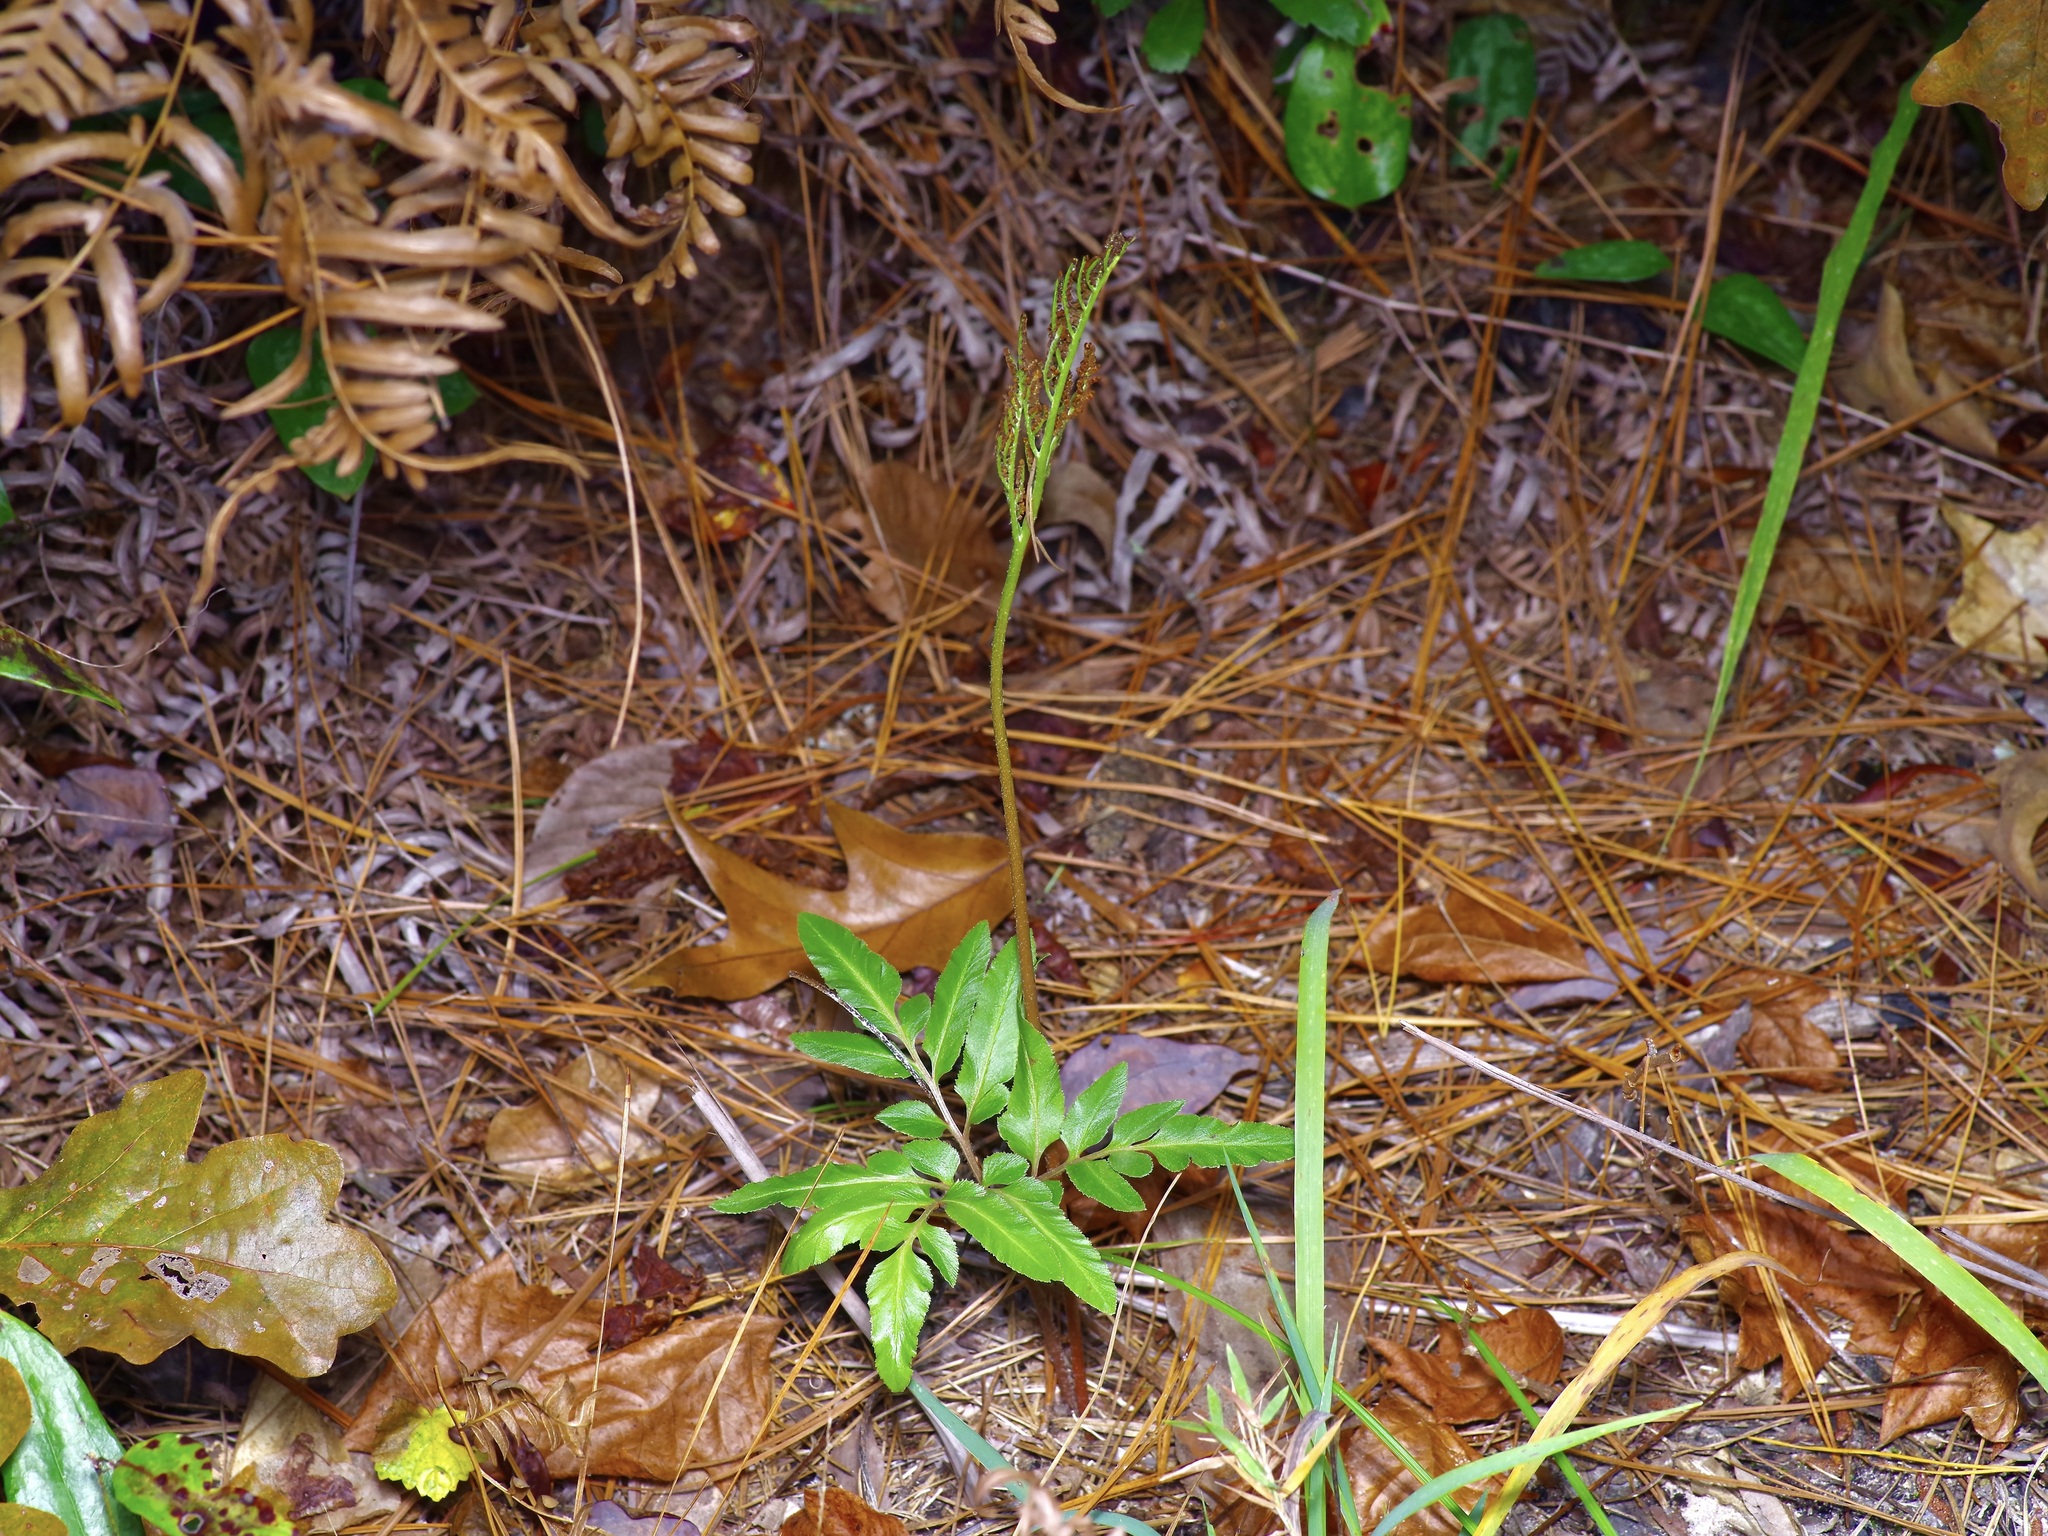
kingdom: Plantae
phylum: Tracheophyta
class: Polypodiopsida
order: Ophioglossales
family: Ophioglossaceae
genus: Sceptridium
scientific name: Sceptridium biternatum
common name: Sparse-lobed grapefern
